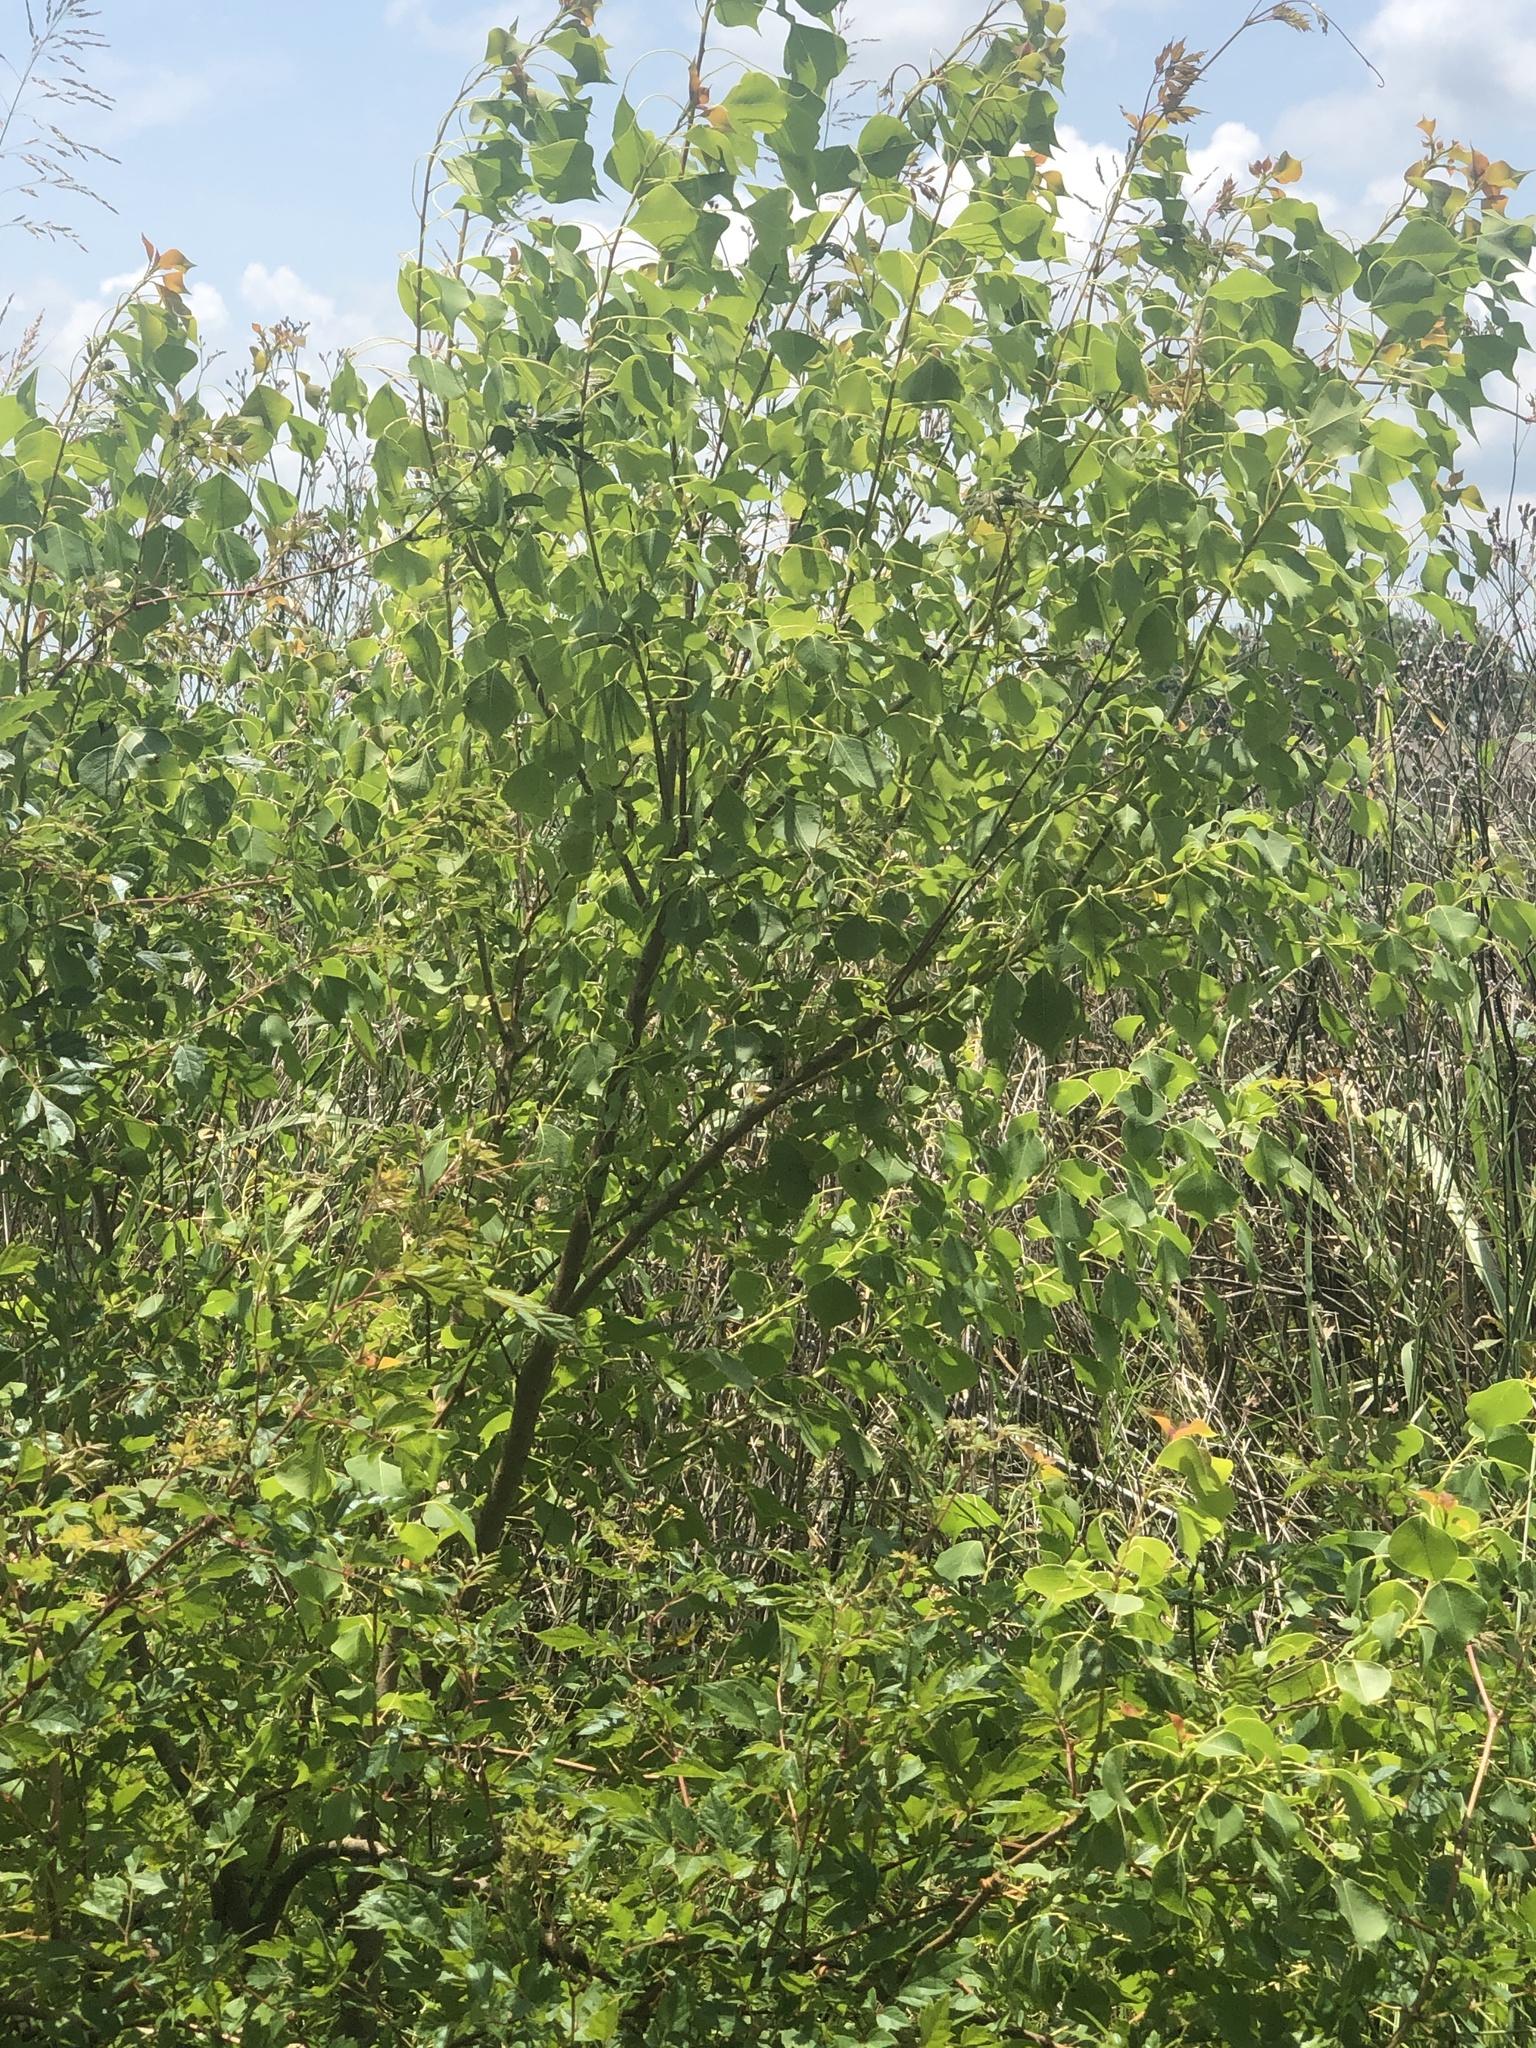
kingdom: Plantae
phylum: Tracheophyta
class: Magnoliopsida
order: Malpighiales
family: Euphorbiaceae
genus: Triadica
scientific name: Triadica sebifera
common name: Chinese tallow
